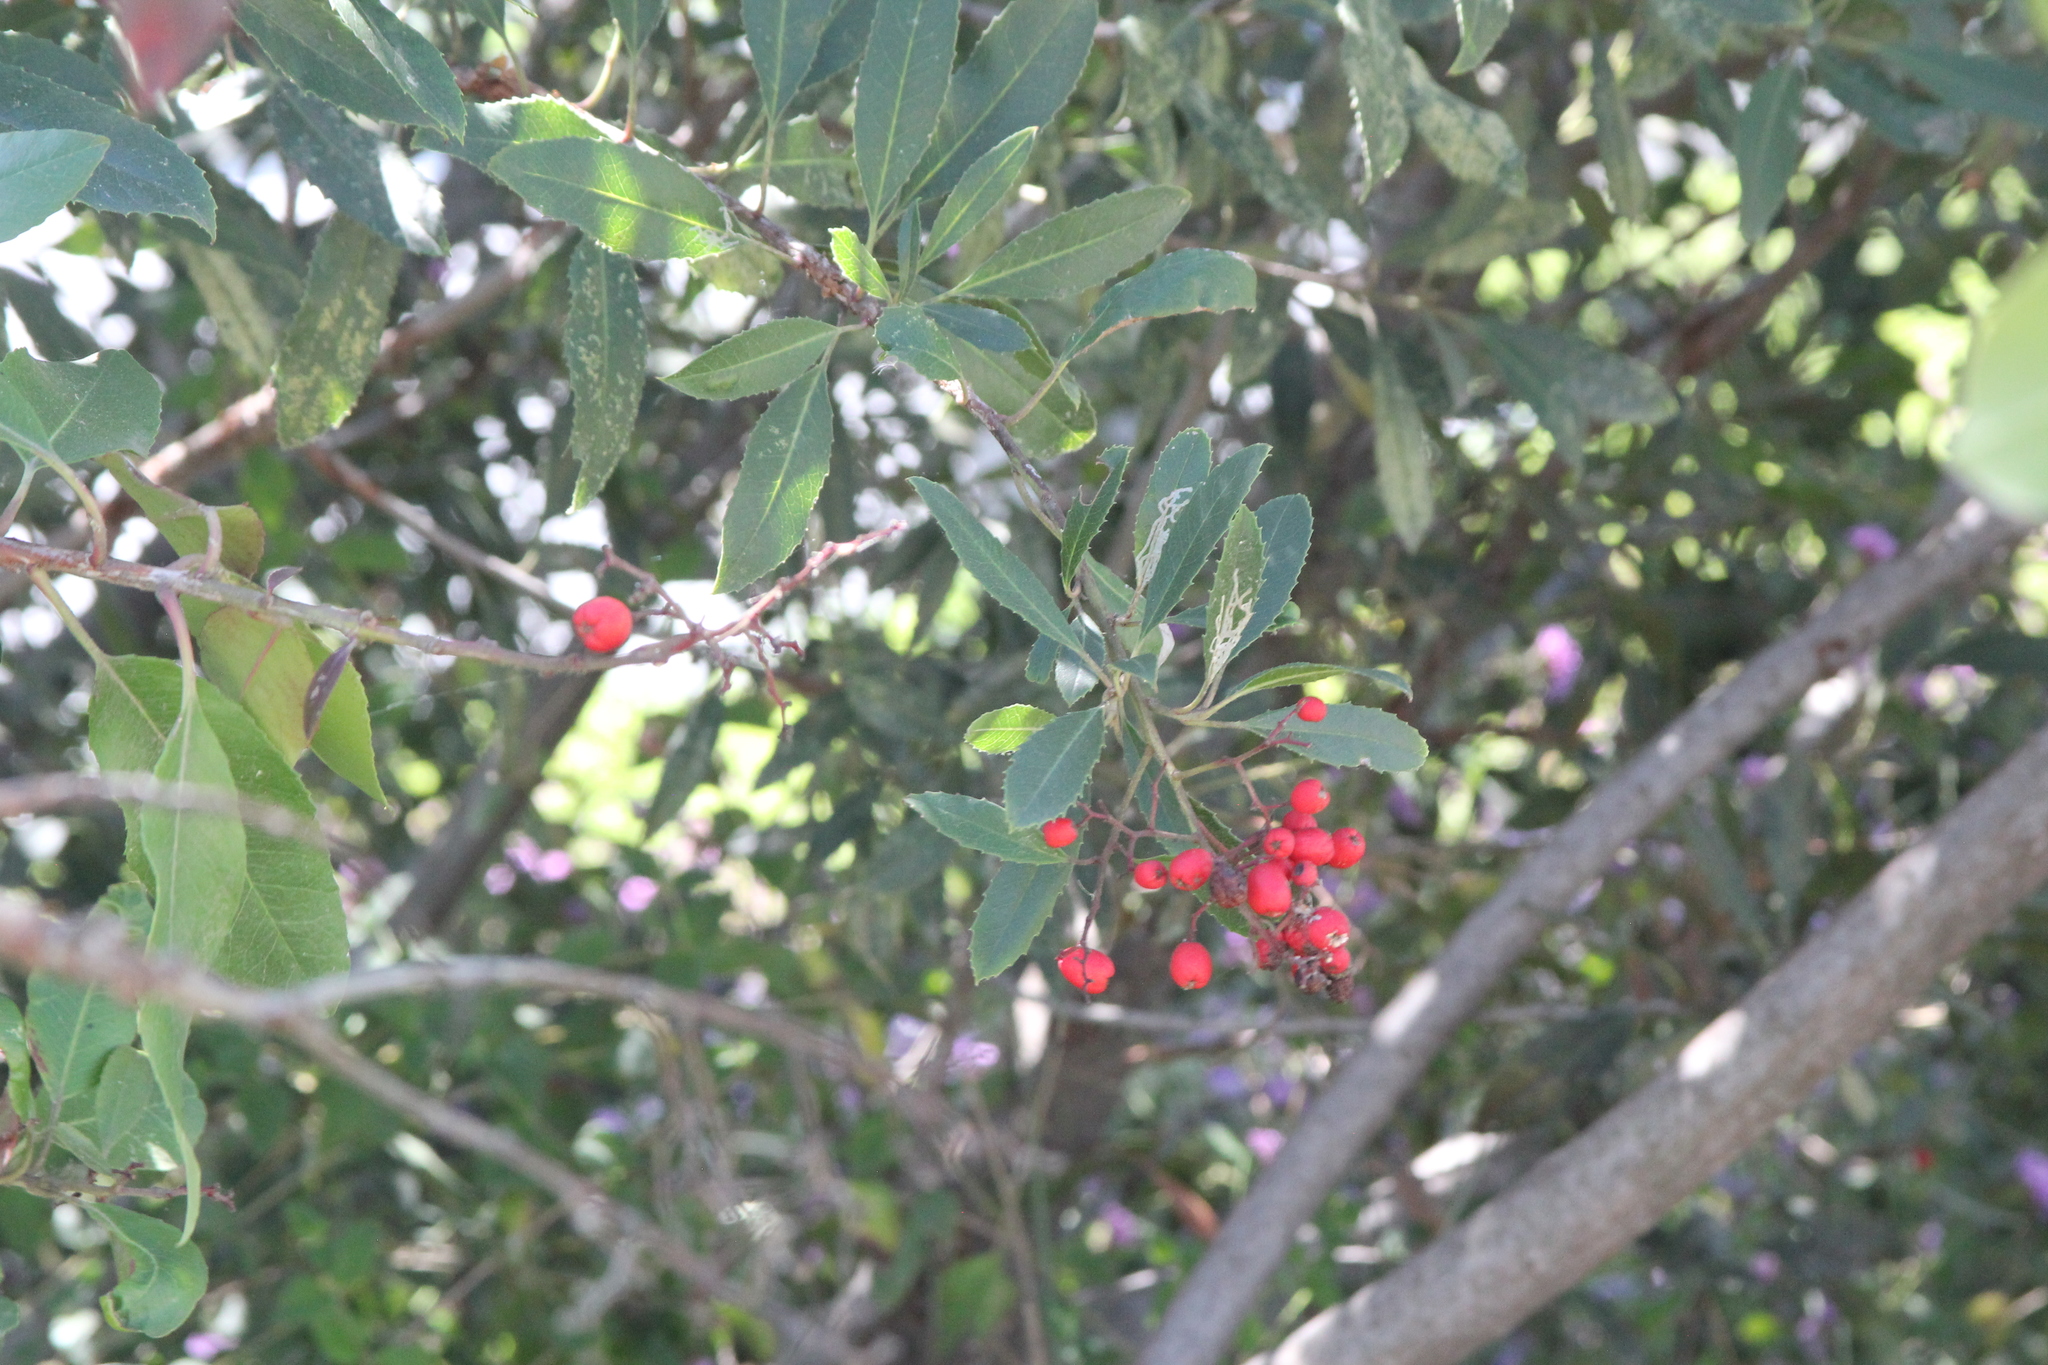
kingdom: Plantae
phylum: Tracheophyta
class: Magnoliopsida
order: Rosales
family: Rosaceae
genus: Heteromeles
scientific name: Heteromeles arbutifolia
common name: California-holly
